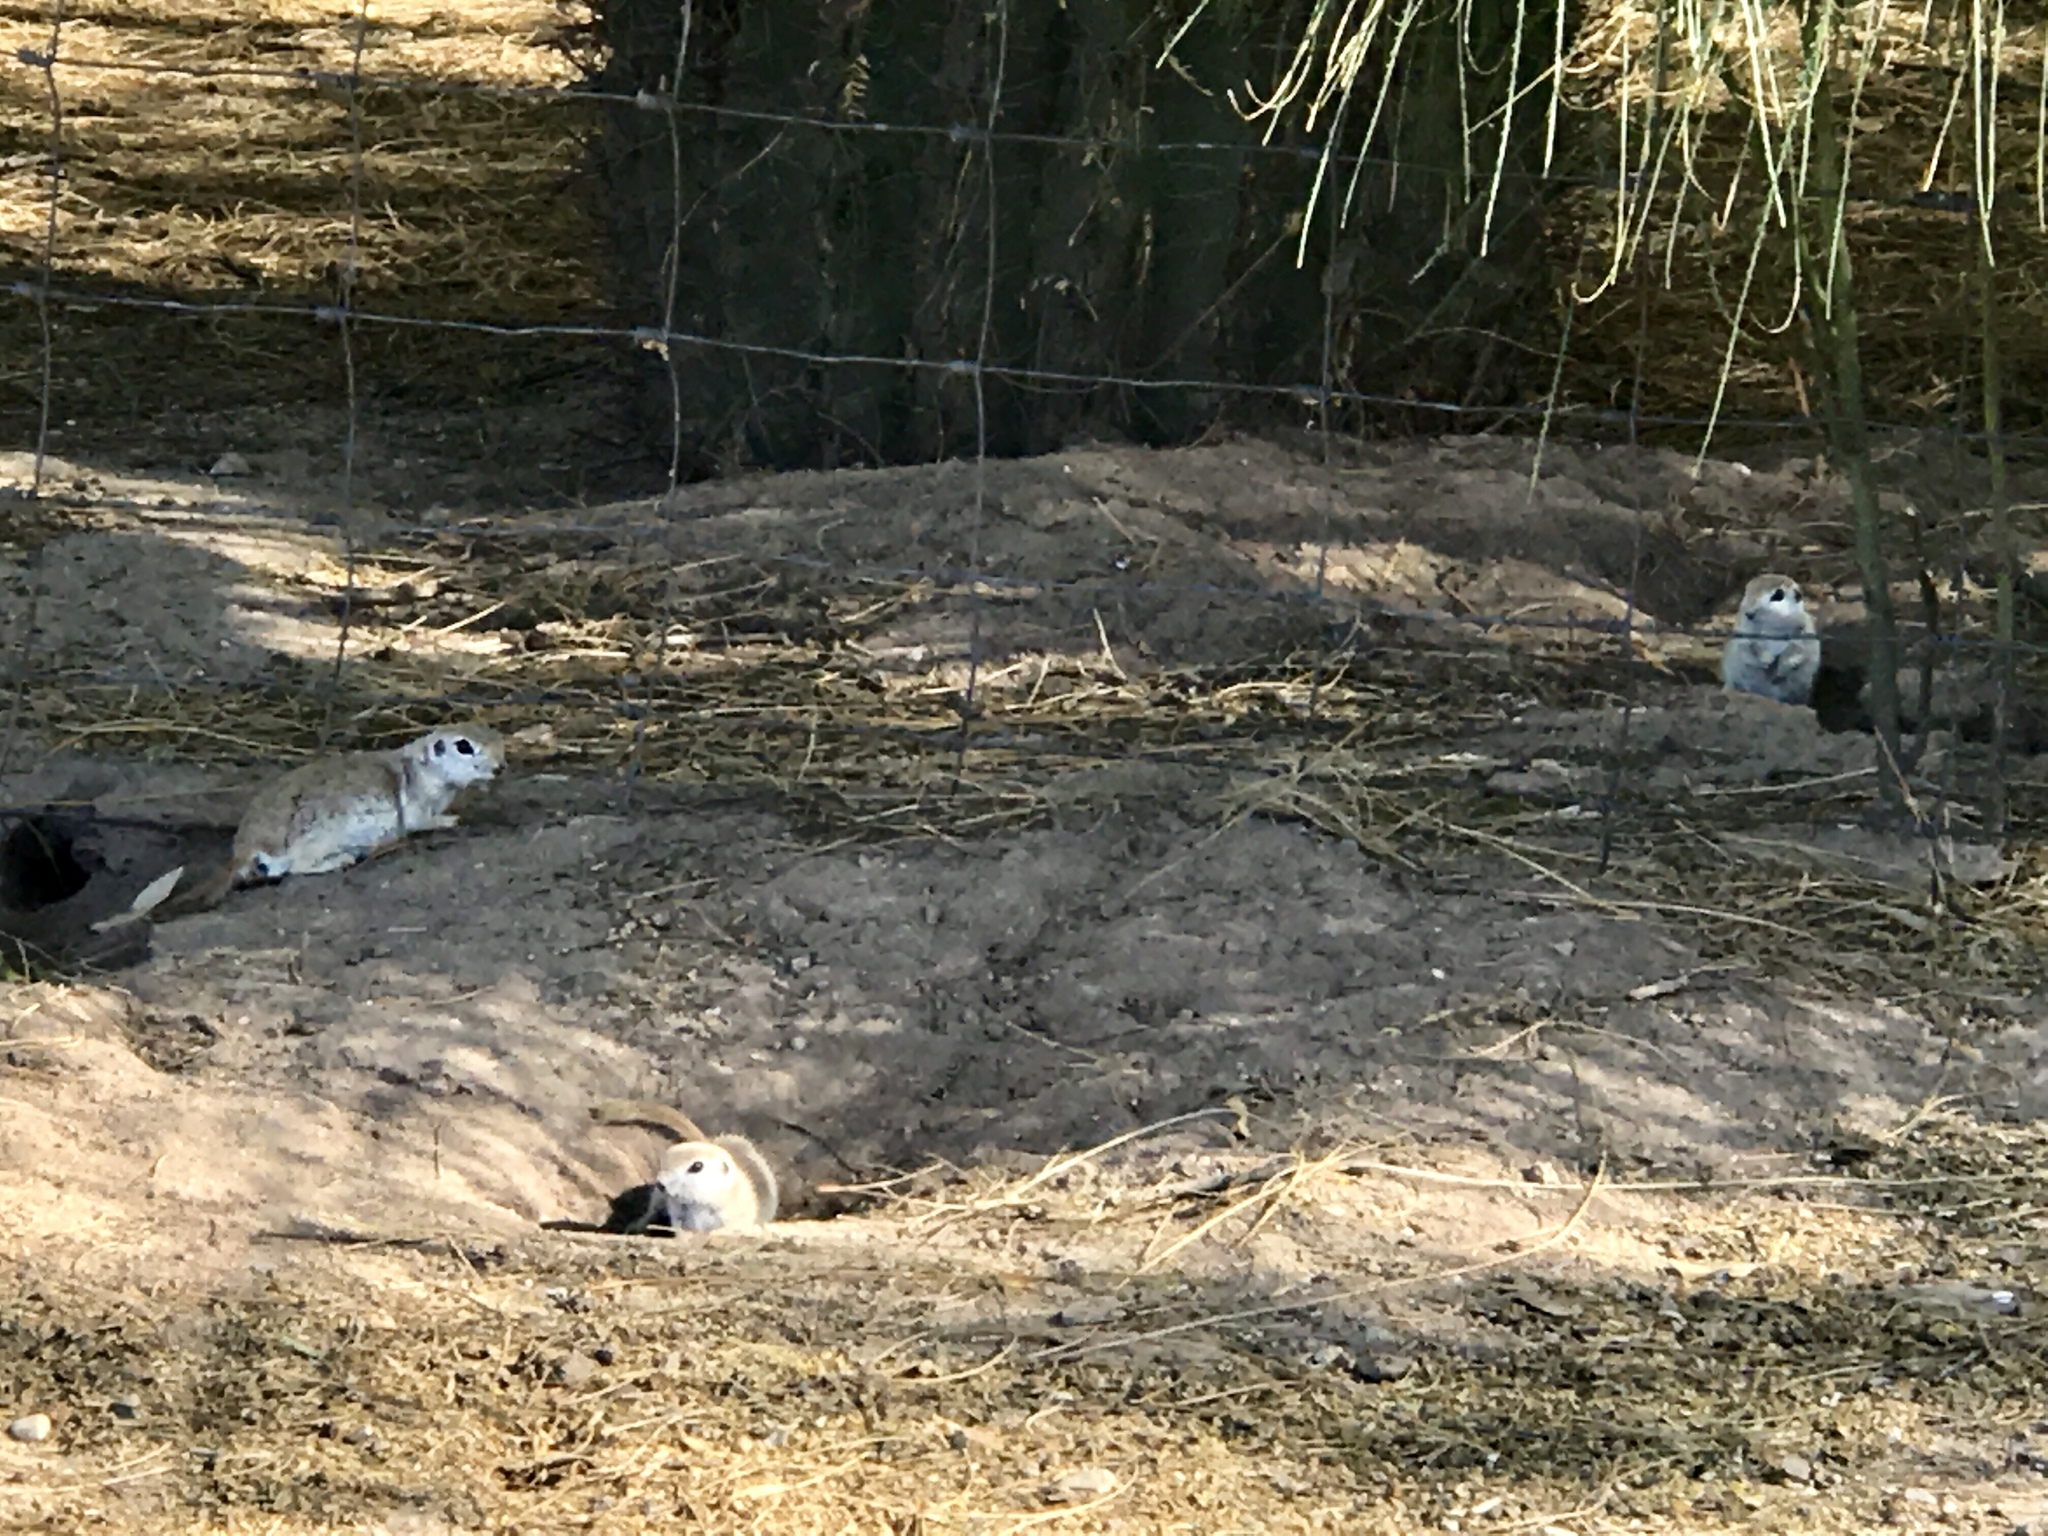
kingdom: Animalia
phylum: Chordata
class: Mammalia
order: Rodentia
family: Sciuridae
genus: Xerospermophilus
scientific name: Xerospermophilus tereticaudus
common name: Round-tailed ground squirrel
